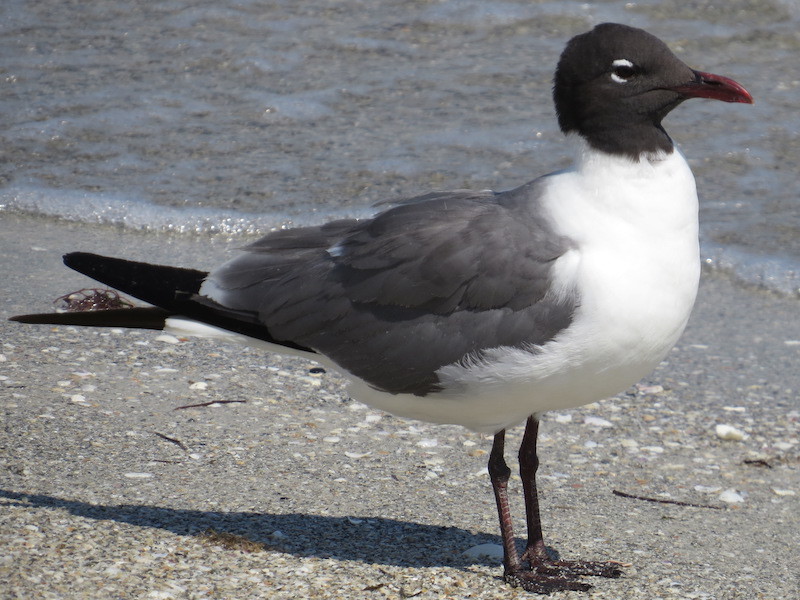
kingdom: Animalia
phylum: Chordata
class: Aves
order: Charadriiformes
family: Laridae
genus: Leucophaeus
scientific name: Leucophaeus atricilla
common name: Laughing gull
